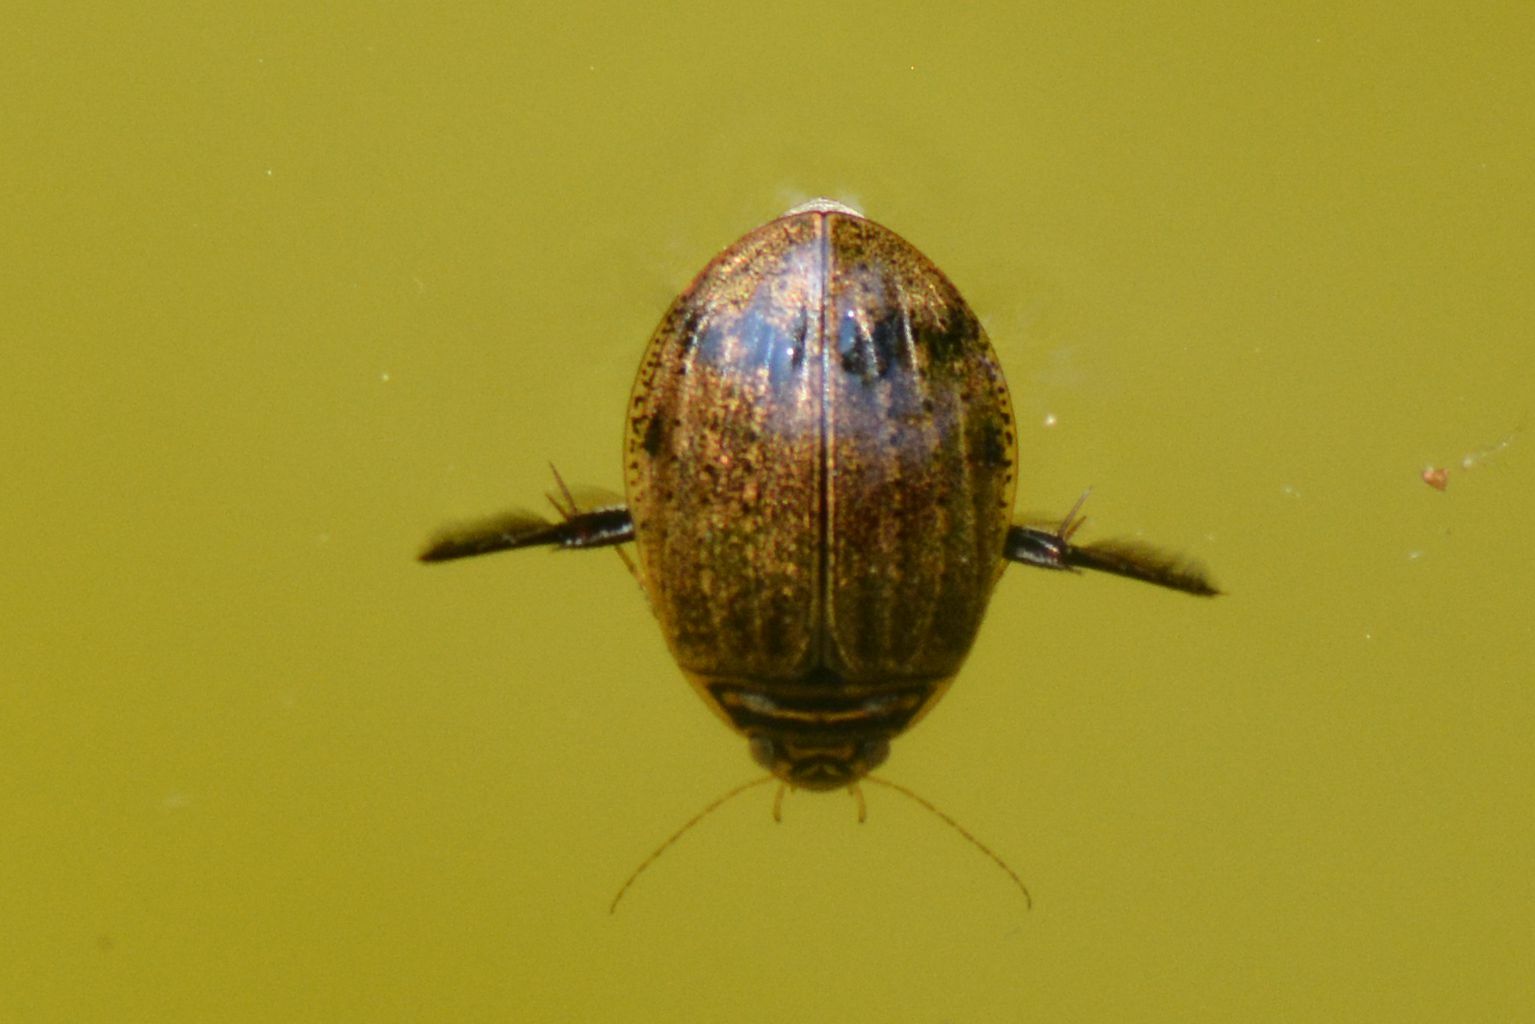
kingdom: Animalia
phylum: Arthropoda
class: Insecta
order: Coleoptera
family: Dytiscidae
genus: Acilius
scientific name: Acilius sulcatus
